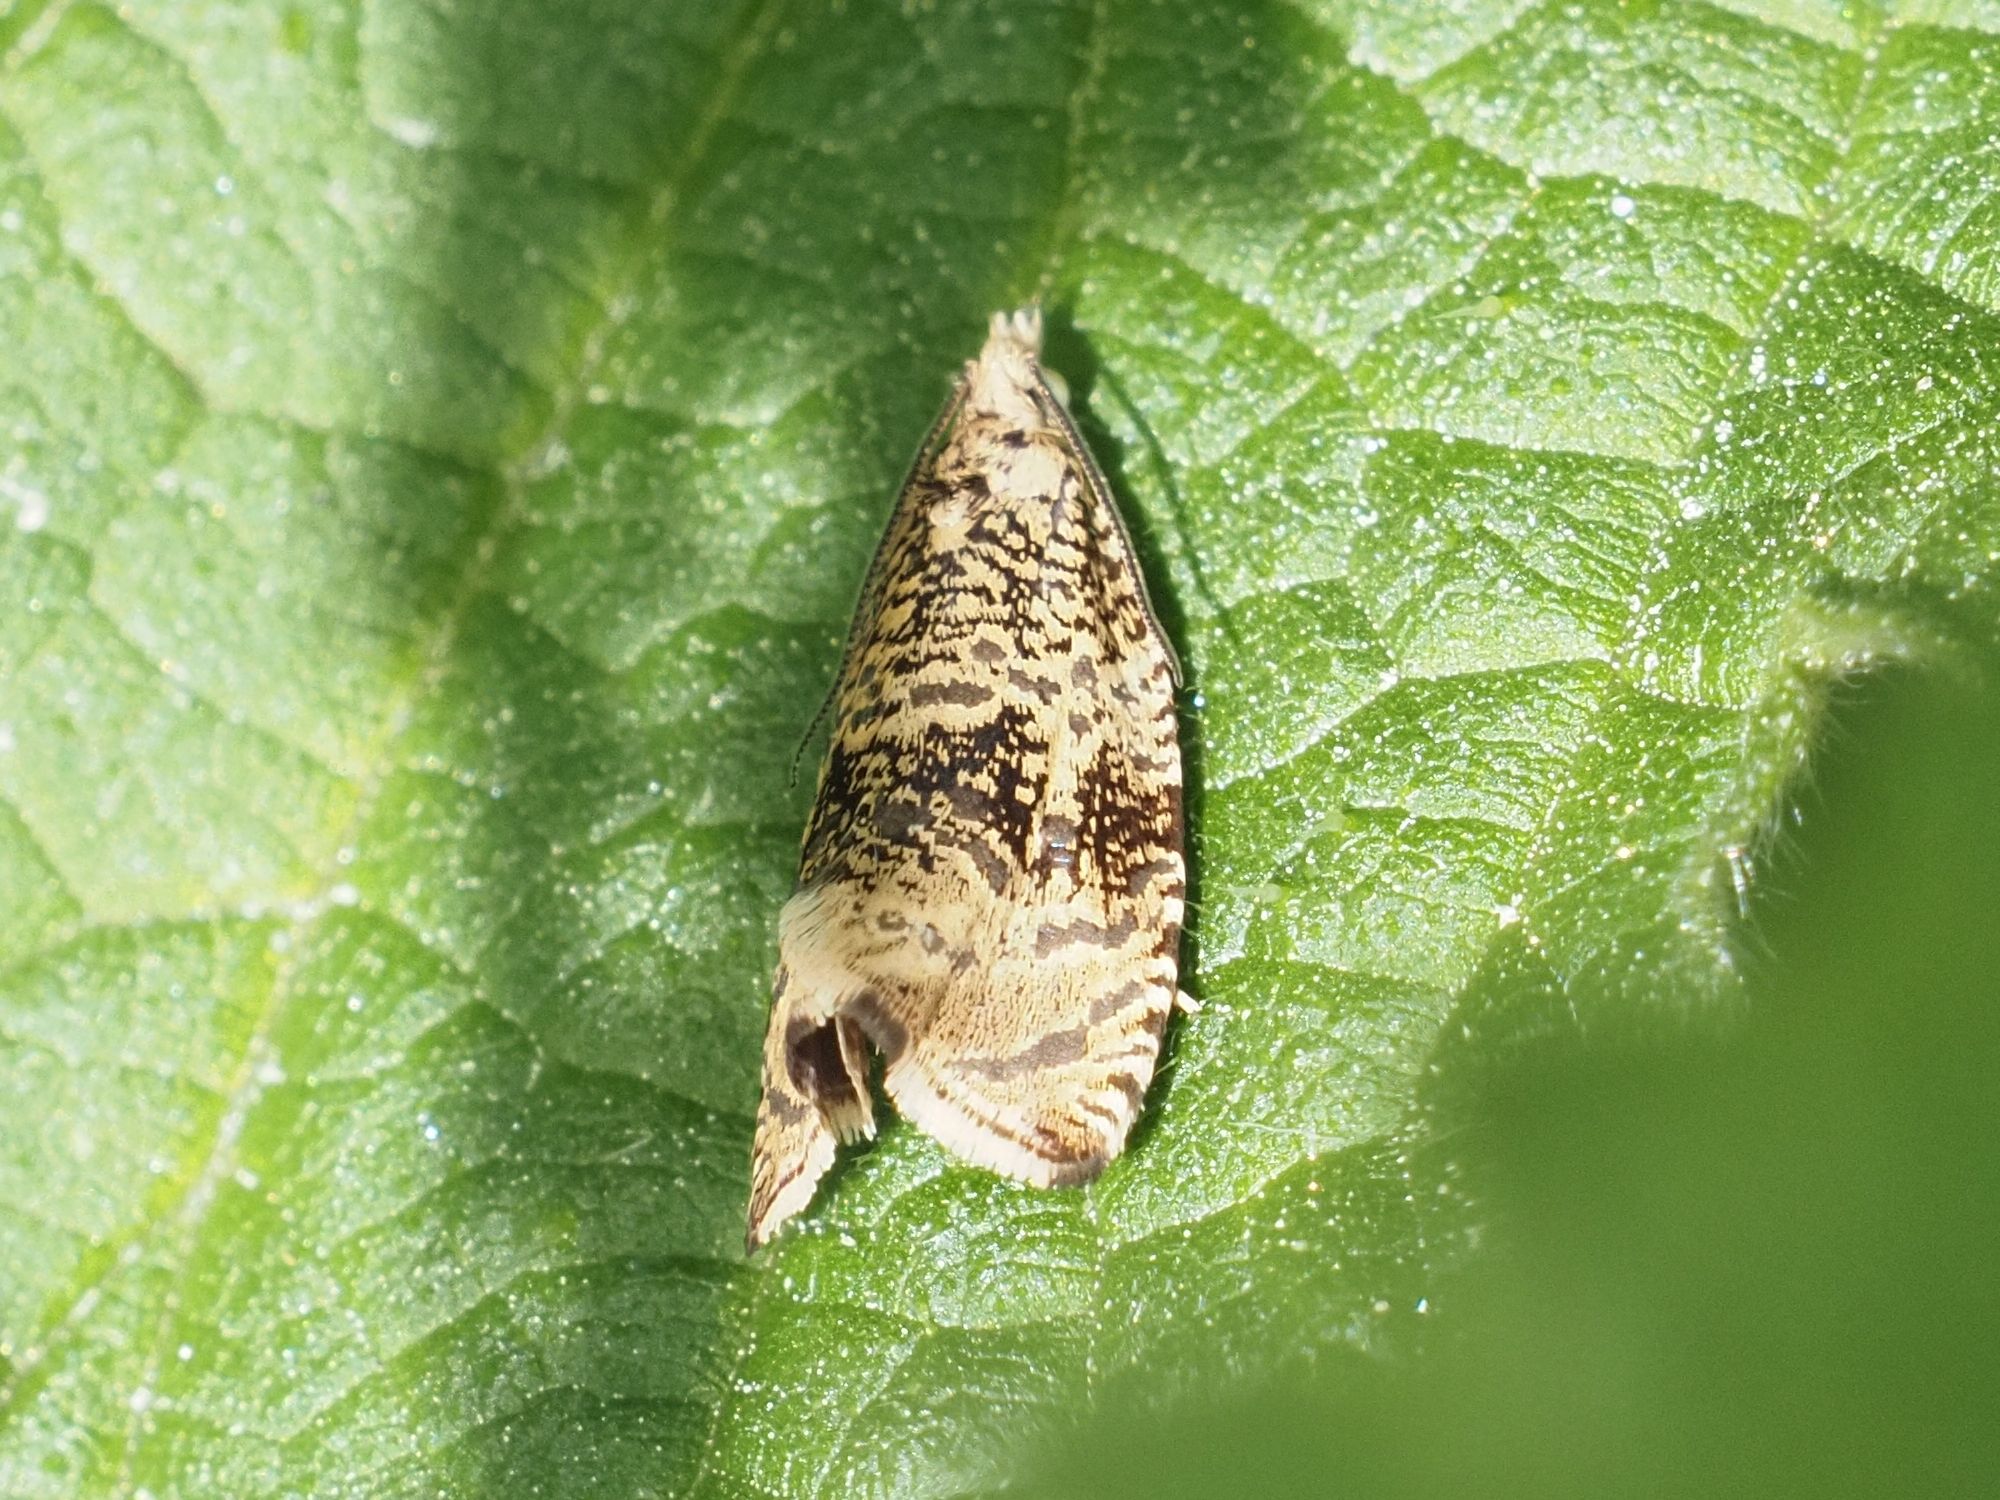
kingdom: Animalia
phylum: Arthropoda
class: Insecta
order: Lepidoptera
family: Tortricidae
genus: Syricoris
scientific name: Syricoris lacunana
